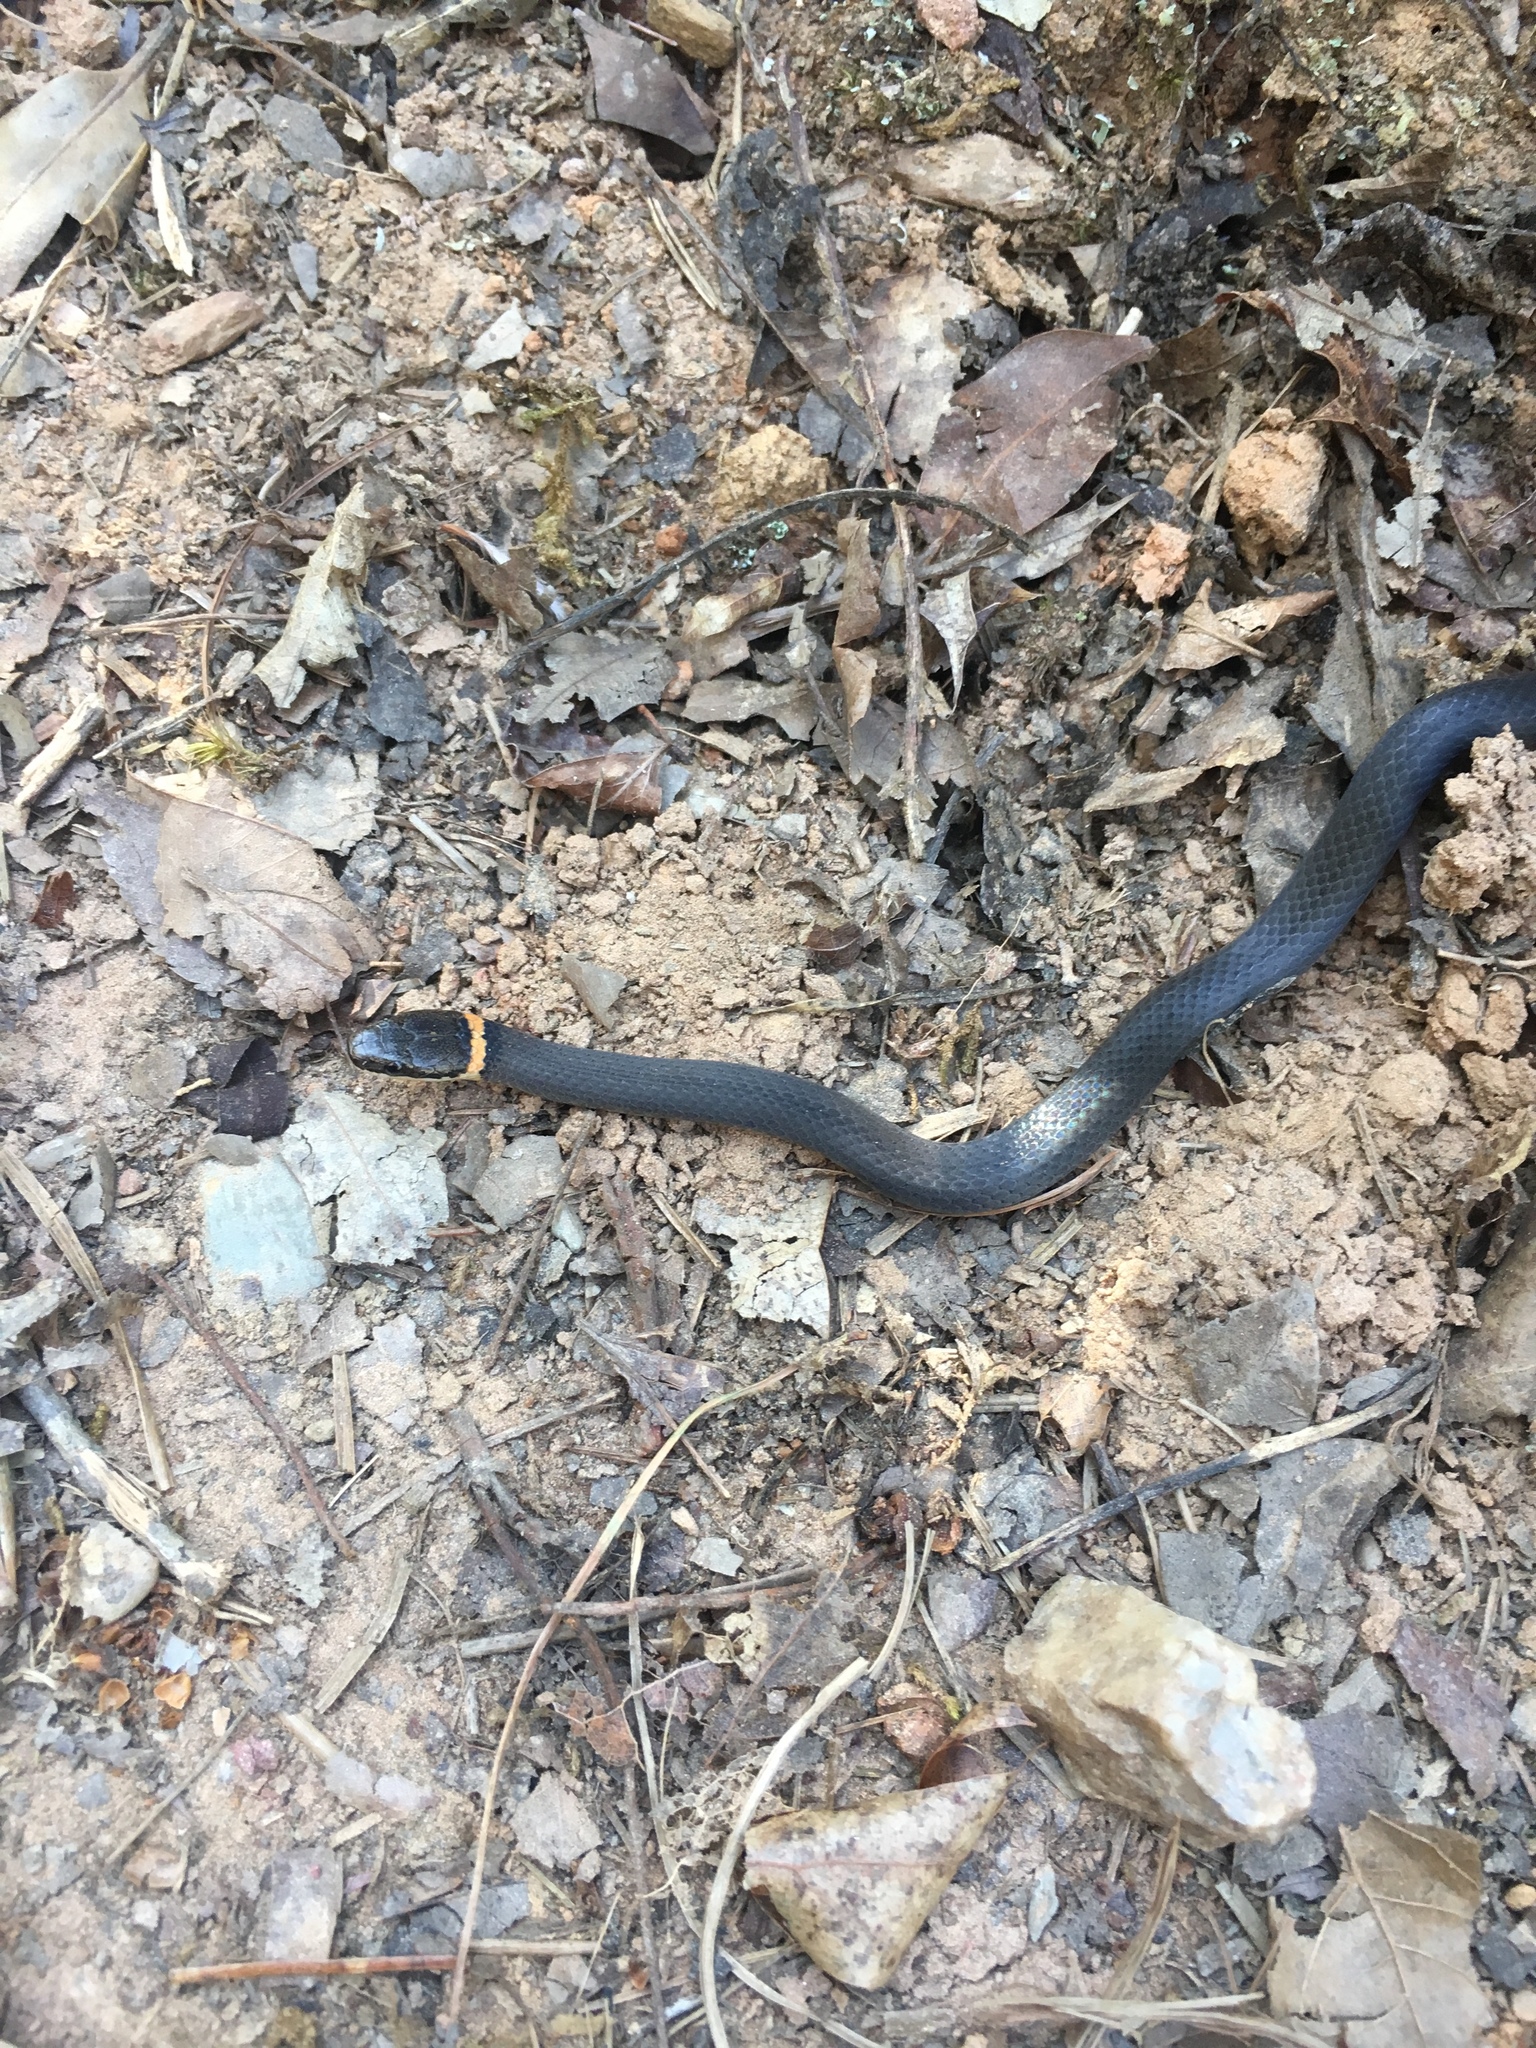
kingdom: Animalia
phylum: Chordata
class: Squamata
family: Colubridae
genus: Diadophis
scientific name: Diadophis punctatus
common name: Ringneck snake
